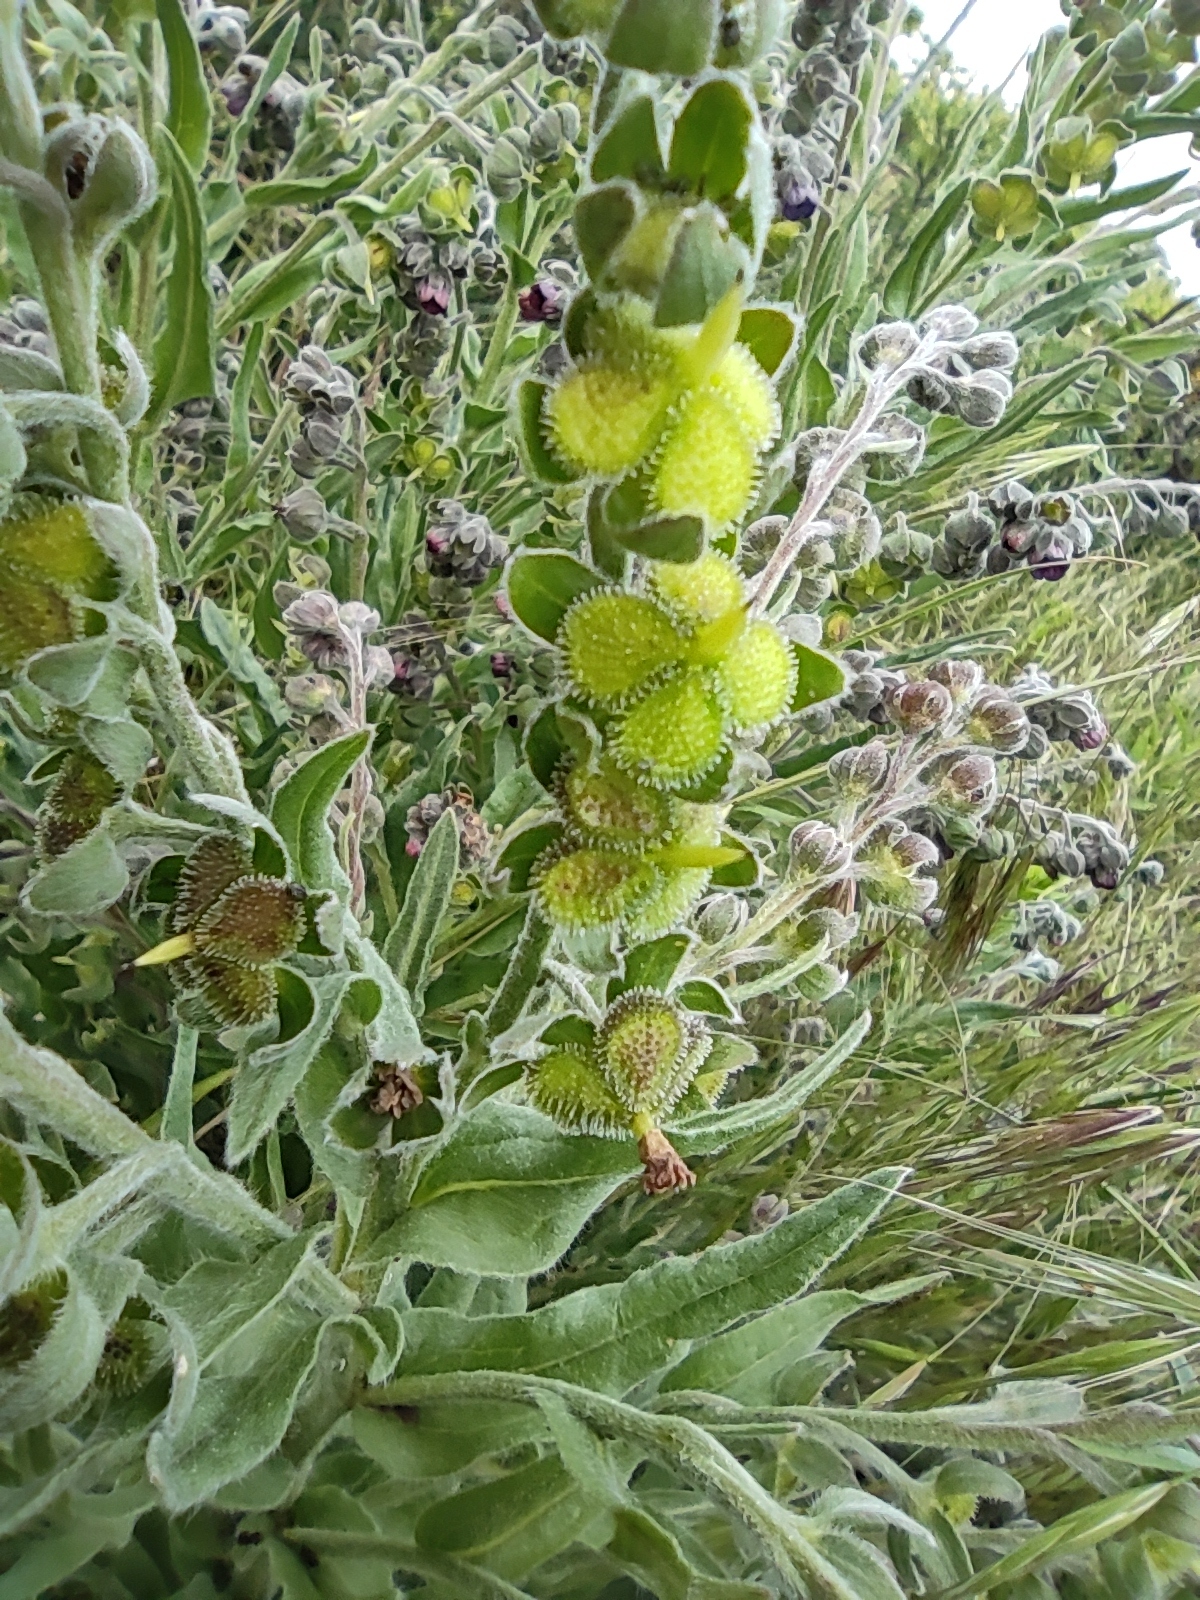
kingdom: Plantae
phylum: Tracheophyta
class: Magnoliopsida
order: Boraginales
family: Boraginaceae
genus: Cynoglossum
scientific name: Cynoglossum officinale
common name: Hound's-tongue
